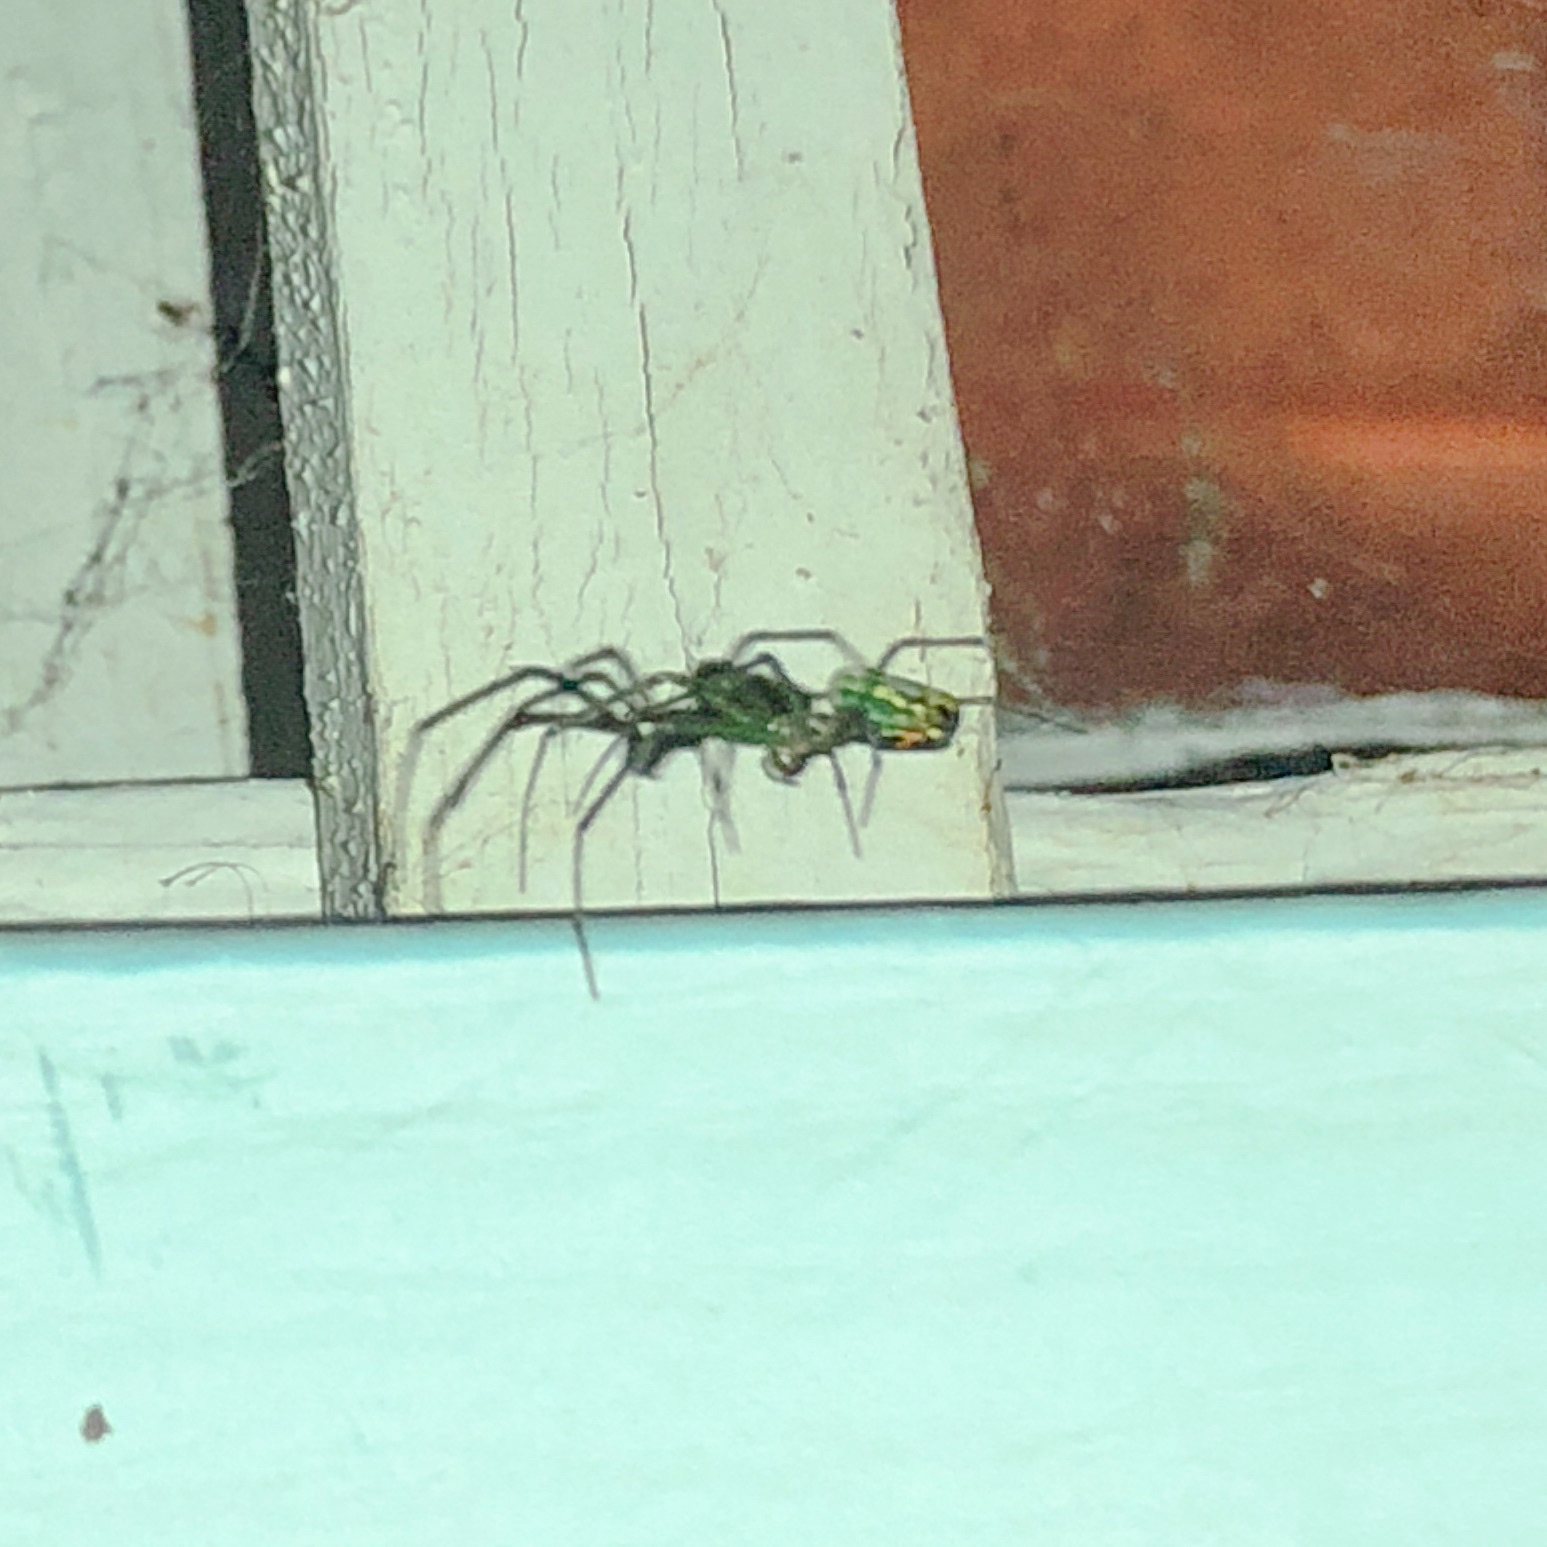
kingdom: Animalia
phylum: Arthropoda
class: Arachnida
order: Araneae
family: Tetragnathidae
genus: Leucauge
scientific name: Leucauge venusta
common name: Longjawed orb weavers
